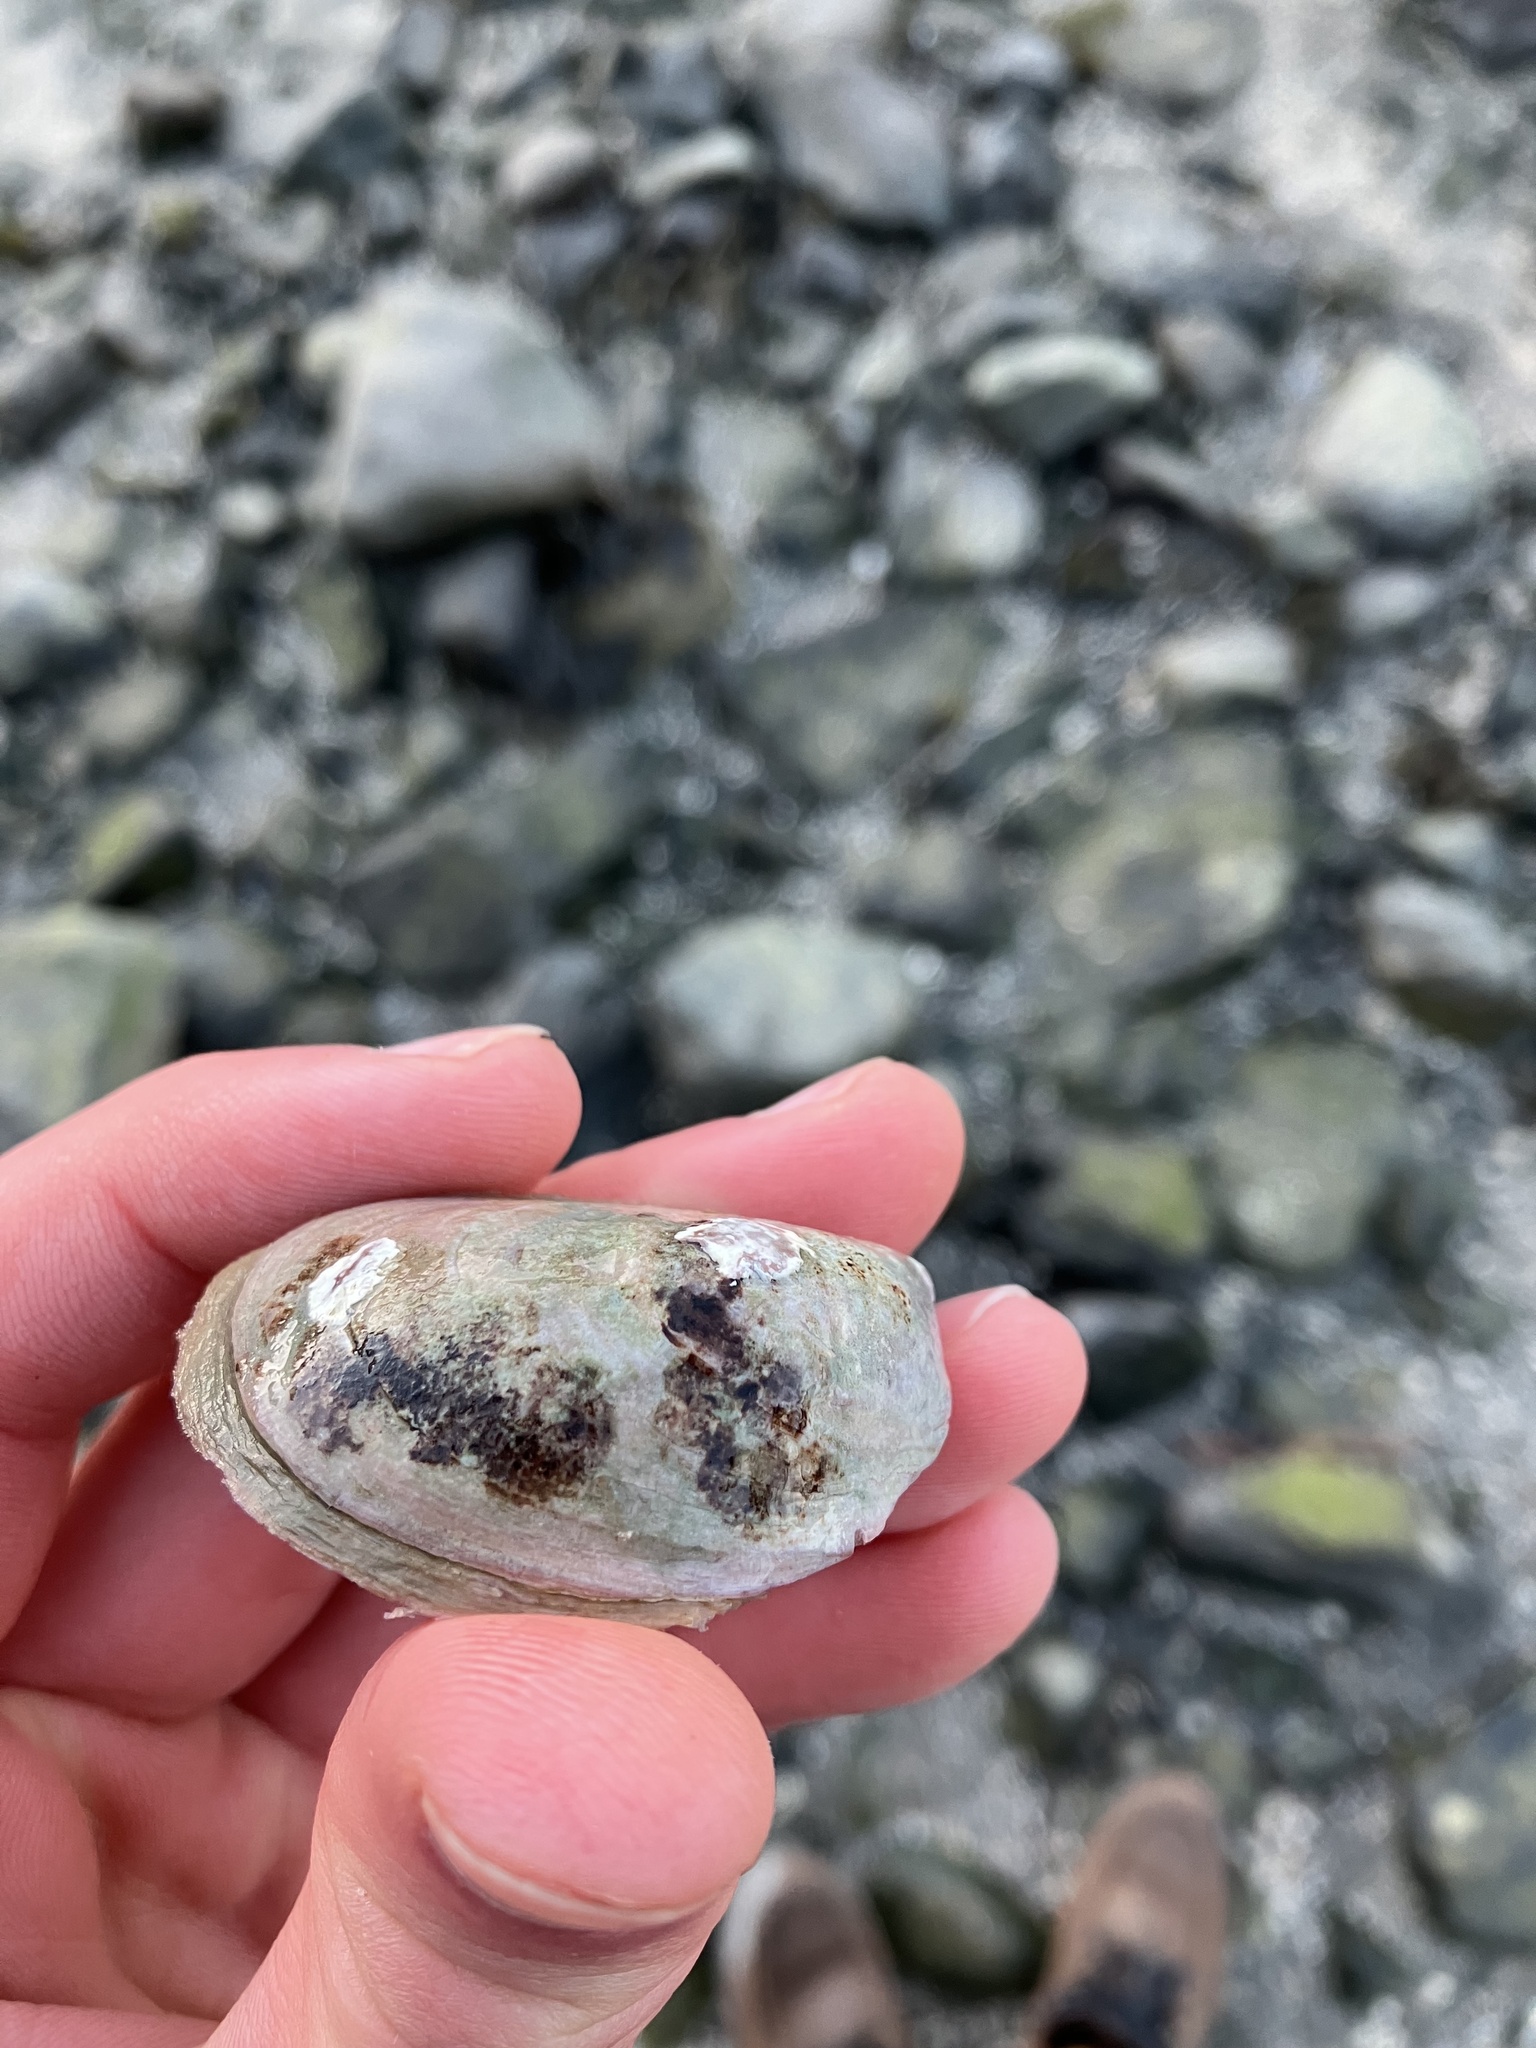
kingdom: Animalia
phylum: Mollusca
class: Gastropoda
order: Littorinimorpha
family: Calyptraeidae
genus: Crepidula
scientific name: Crepidula fornicata
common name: Slipper limpet
